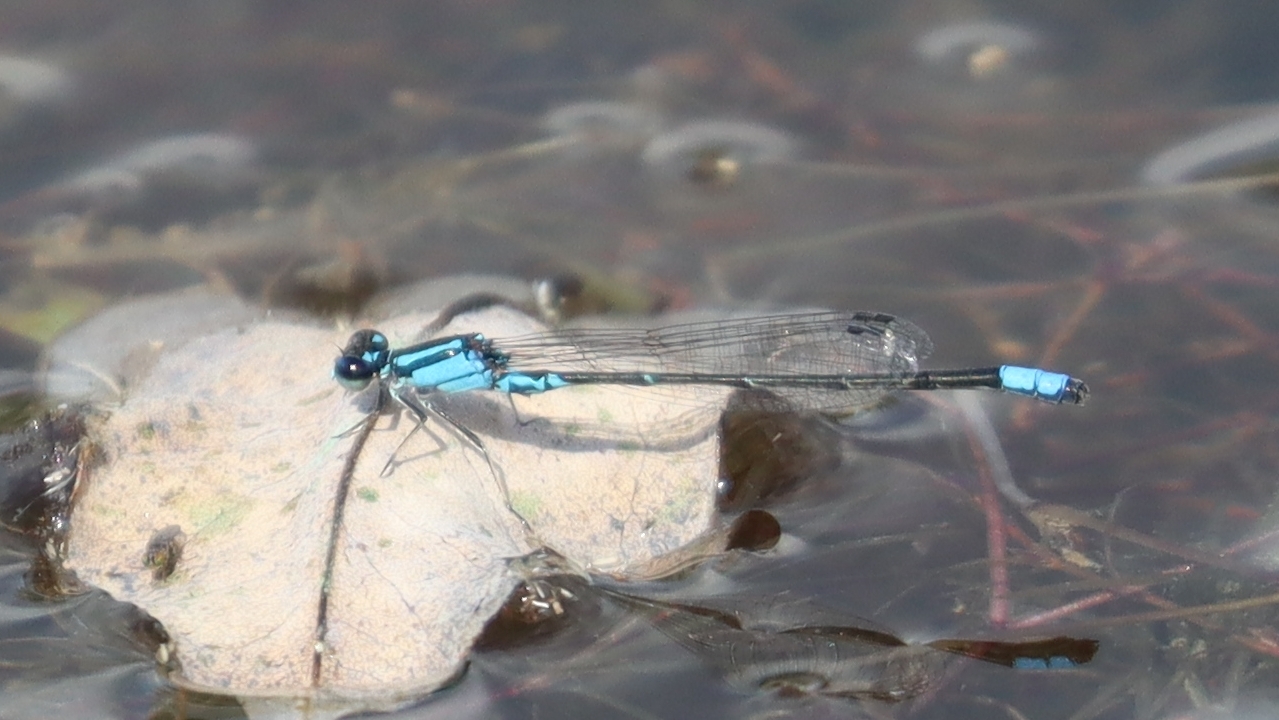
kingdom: Animalia
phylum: Arthropoda
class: Insecta
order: Odonata
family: Coenagrionidae
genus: Enallagma
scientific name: Enallagma geminatum
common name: Skimming bluet
